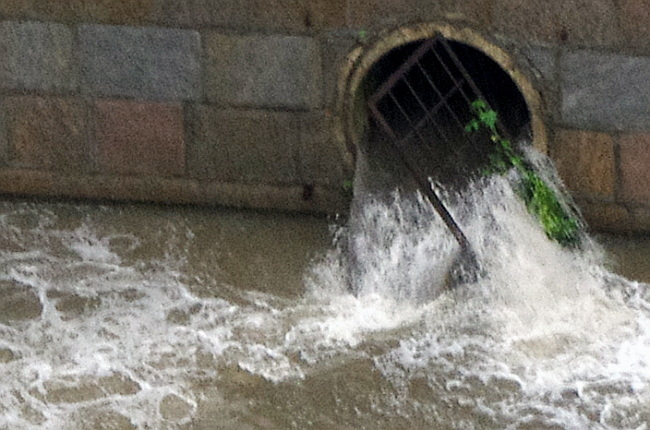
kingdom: Plantae
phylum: Tracheophyta
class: Magnoliopsida
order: Solanales
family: Solanaceae
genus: Solanum
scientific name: Solanum lycopersicum
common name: Garden tomato
